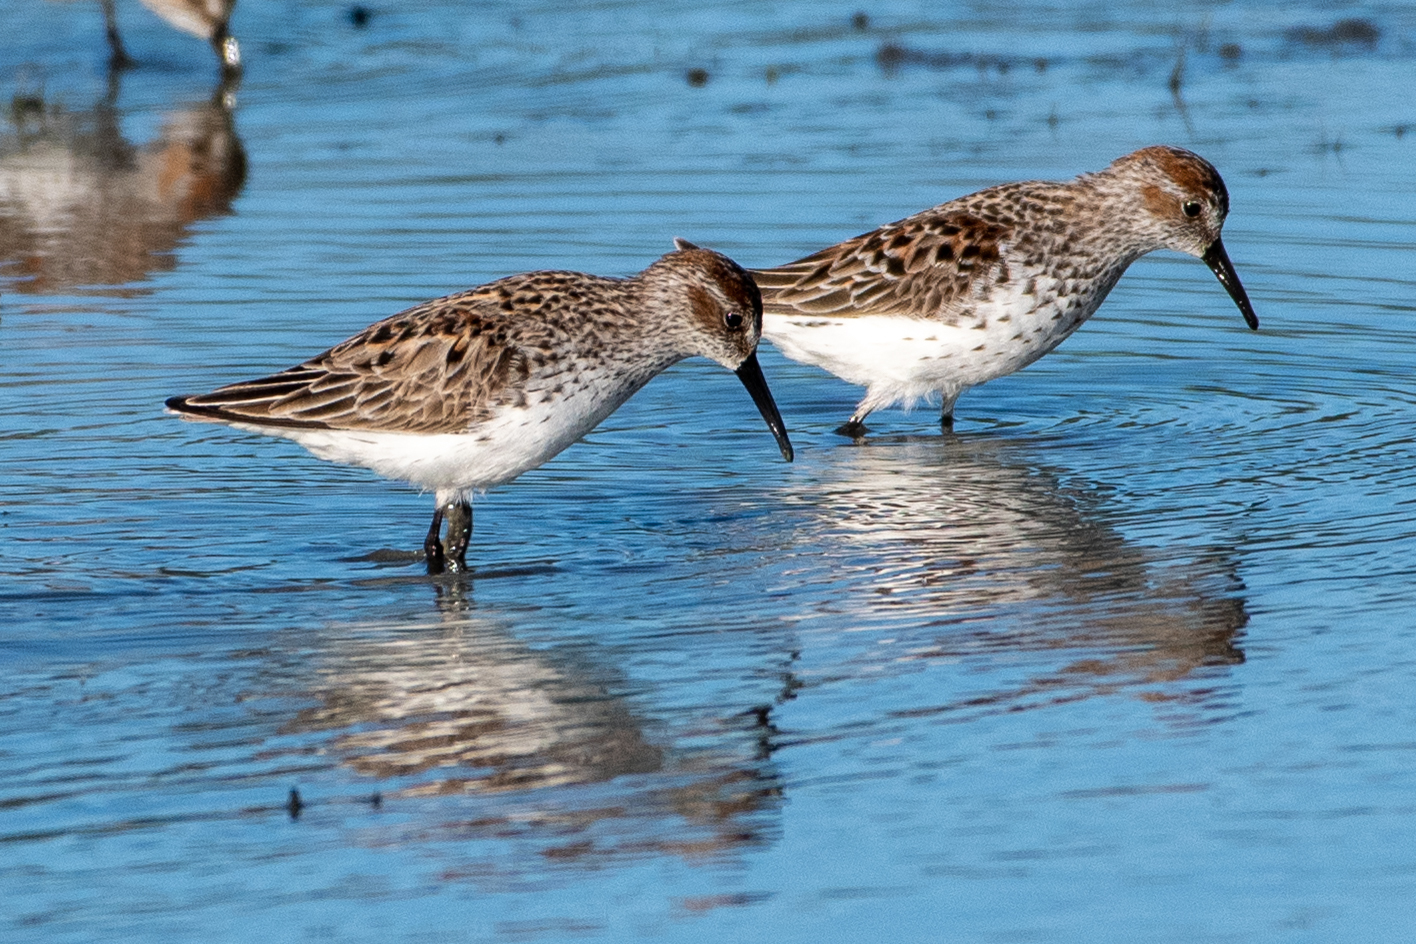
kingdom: Animalia
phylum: Chordata
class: Aves
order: Charadriiformes
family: Scolopacidae
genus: Calidris
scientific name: Calidris mauri
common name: Western sandpiper
